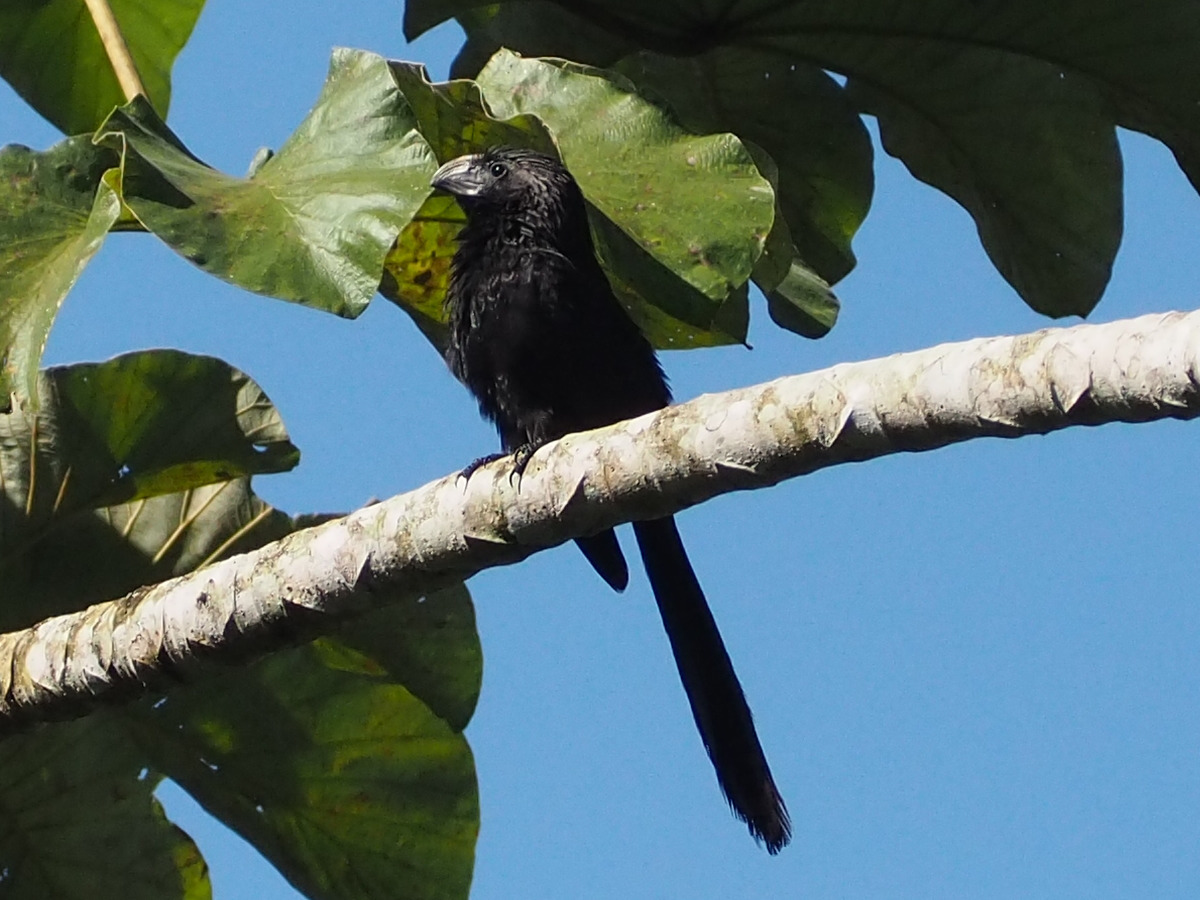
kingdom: Animalia
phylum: Chordata
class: Aves
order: Cuculiformes
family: Cuculidae
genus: Crotophaga
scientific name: Crotophaga sulcirostris
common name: Groove-billed ani
